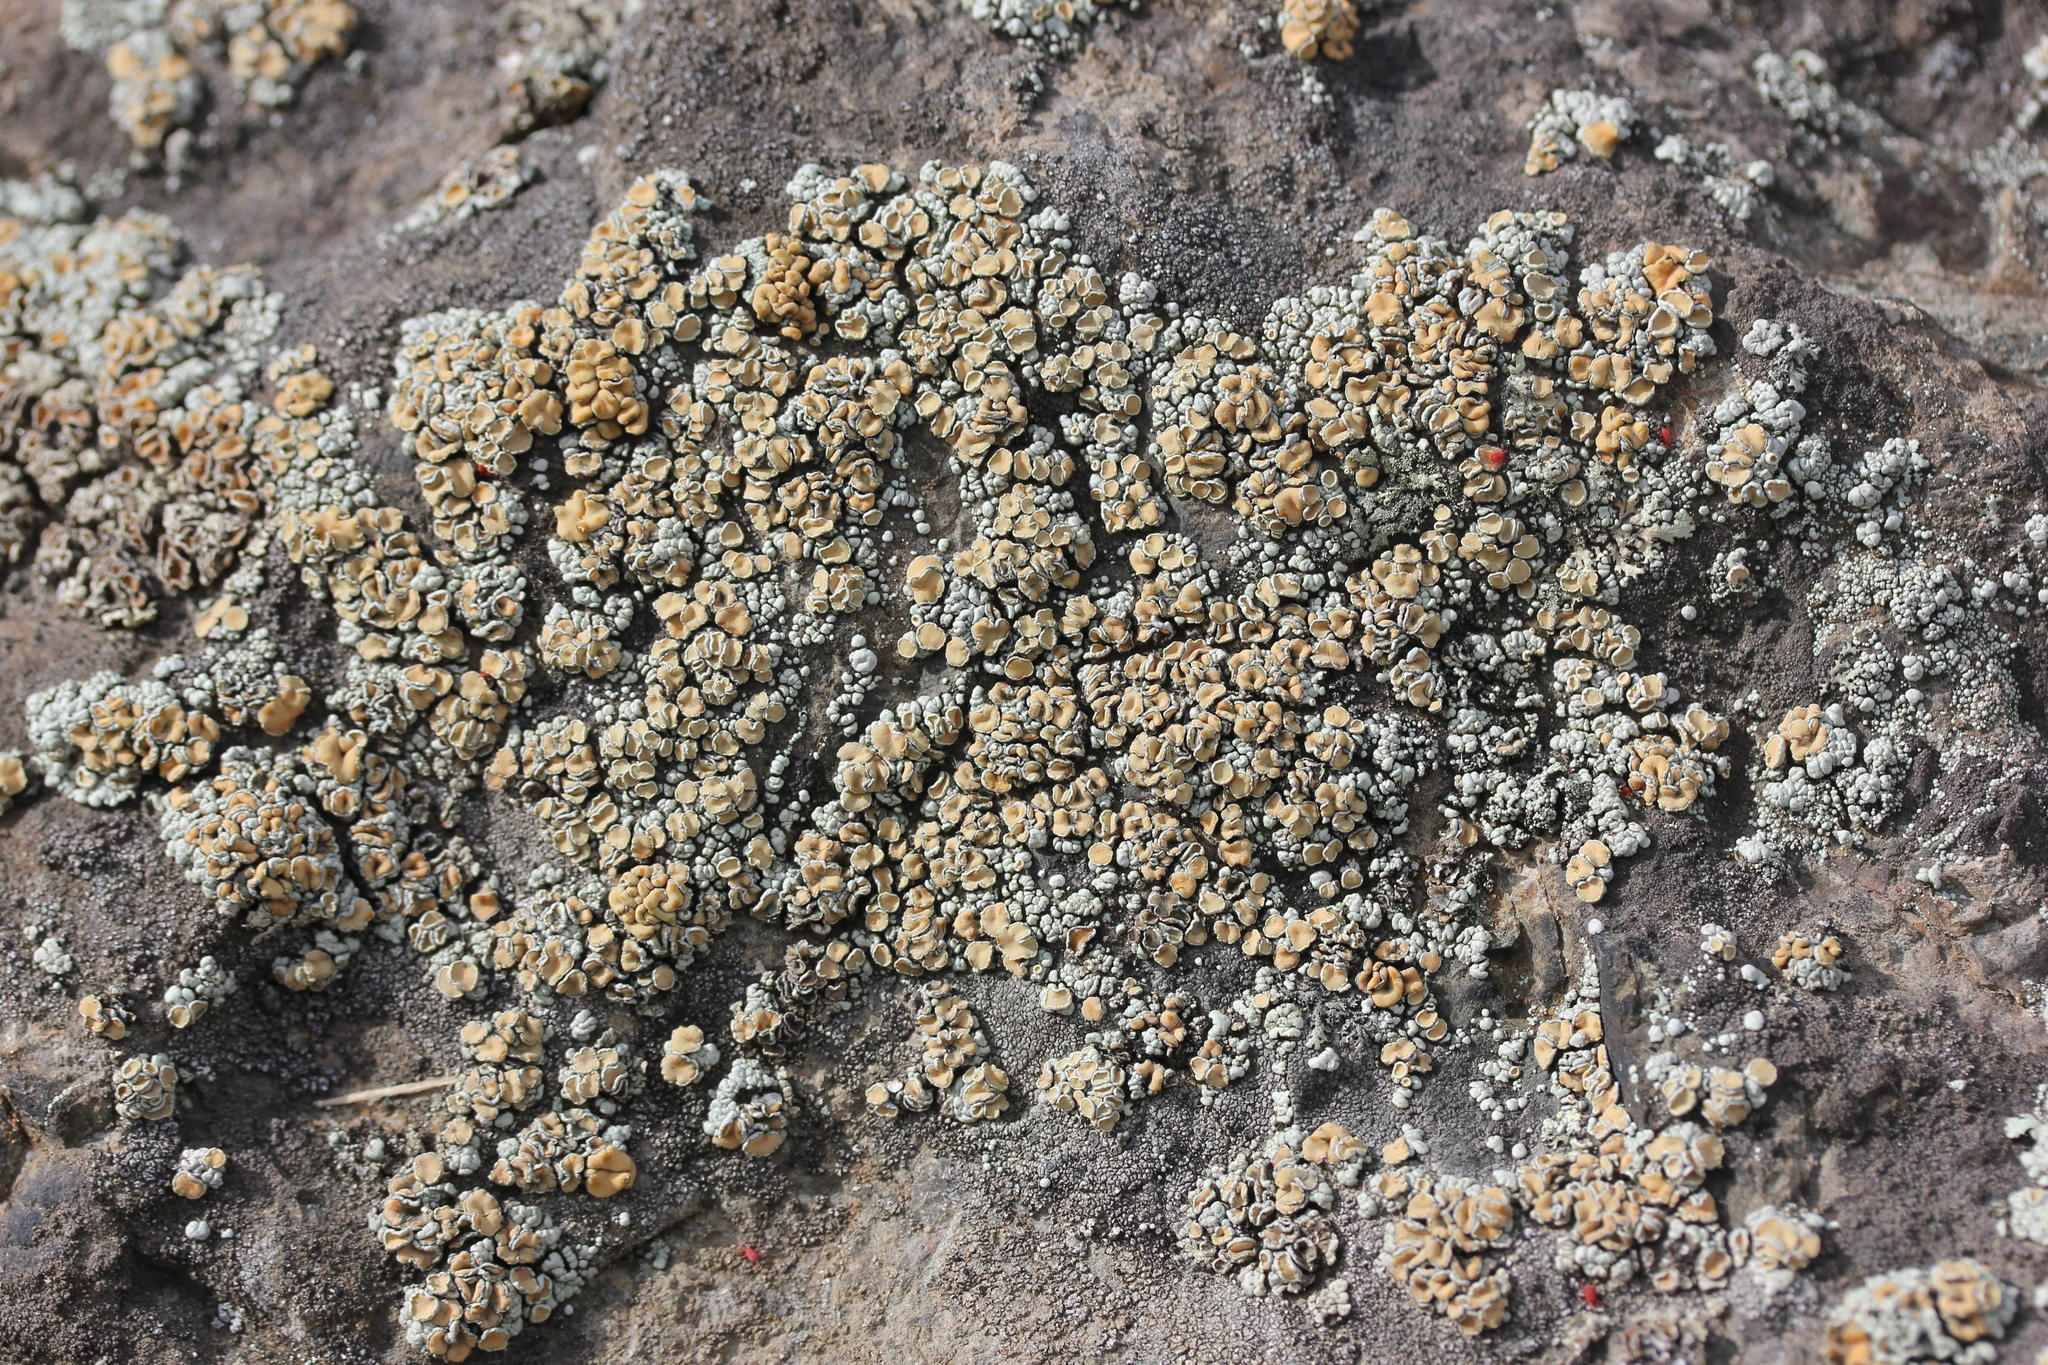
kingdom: Fungi
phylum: Ascomycota
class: Lecanoromycetes
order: Lecanorales
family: Lecanoraceae
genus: Sedelnikovaea
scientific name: Sedelnikovaea subdiscrepans
